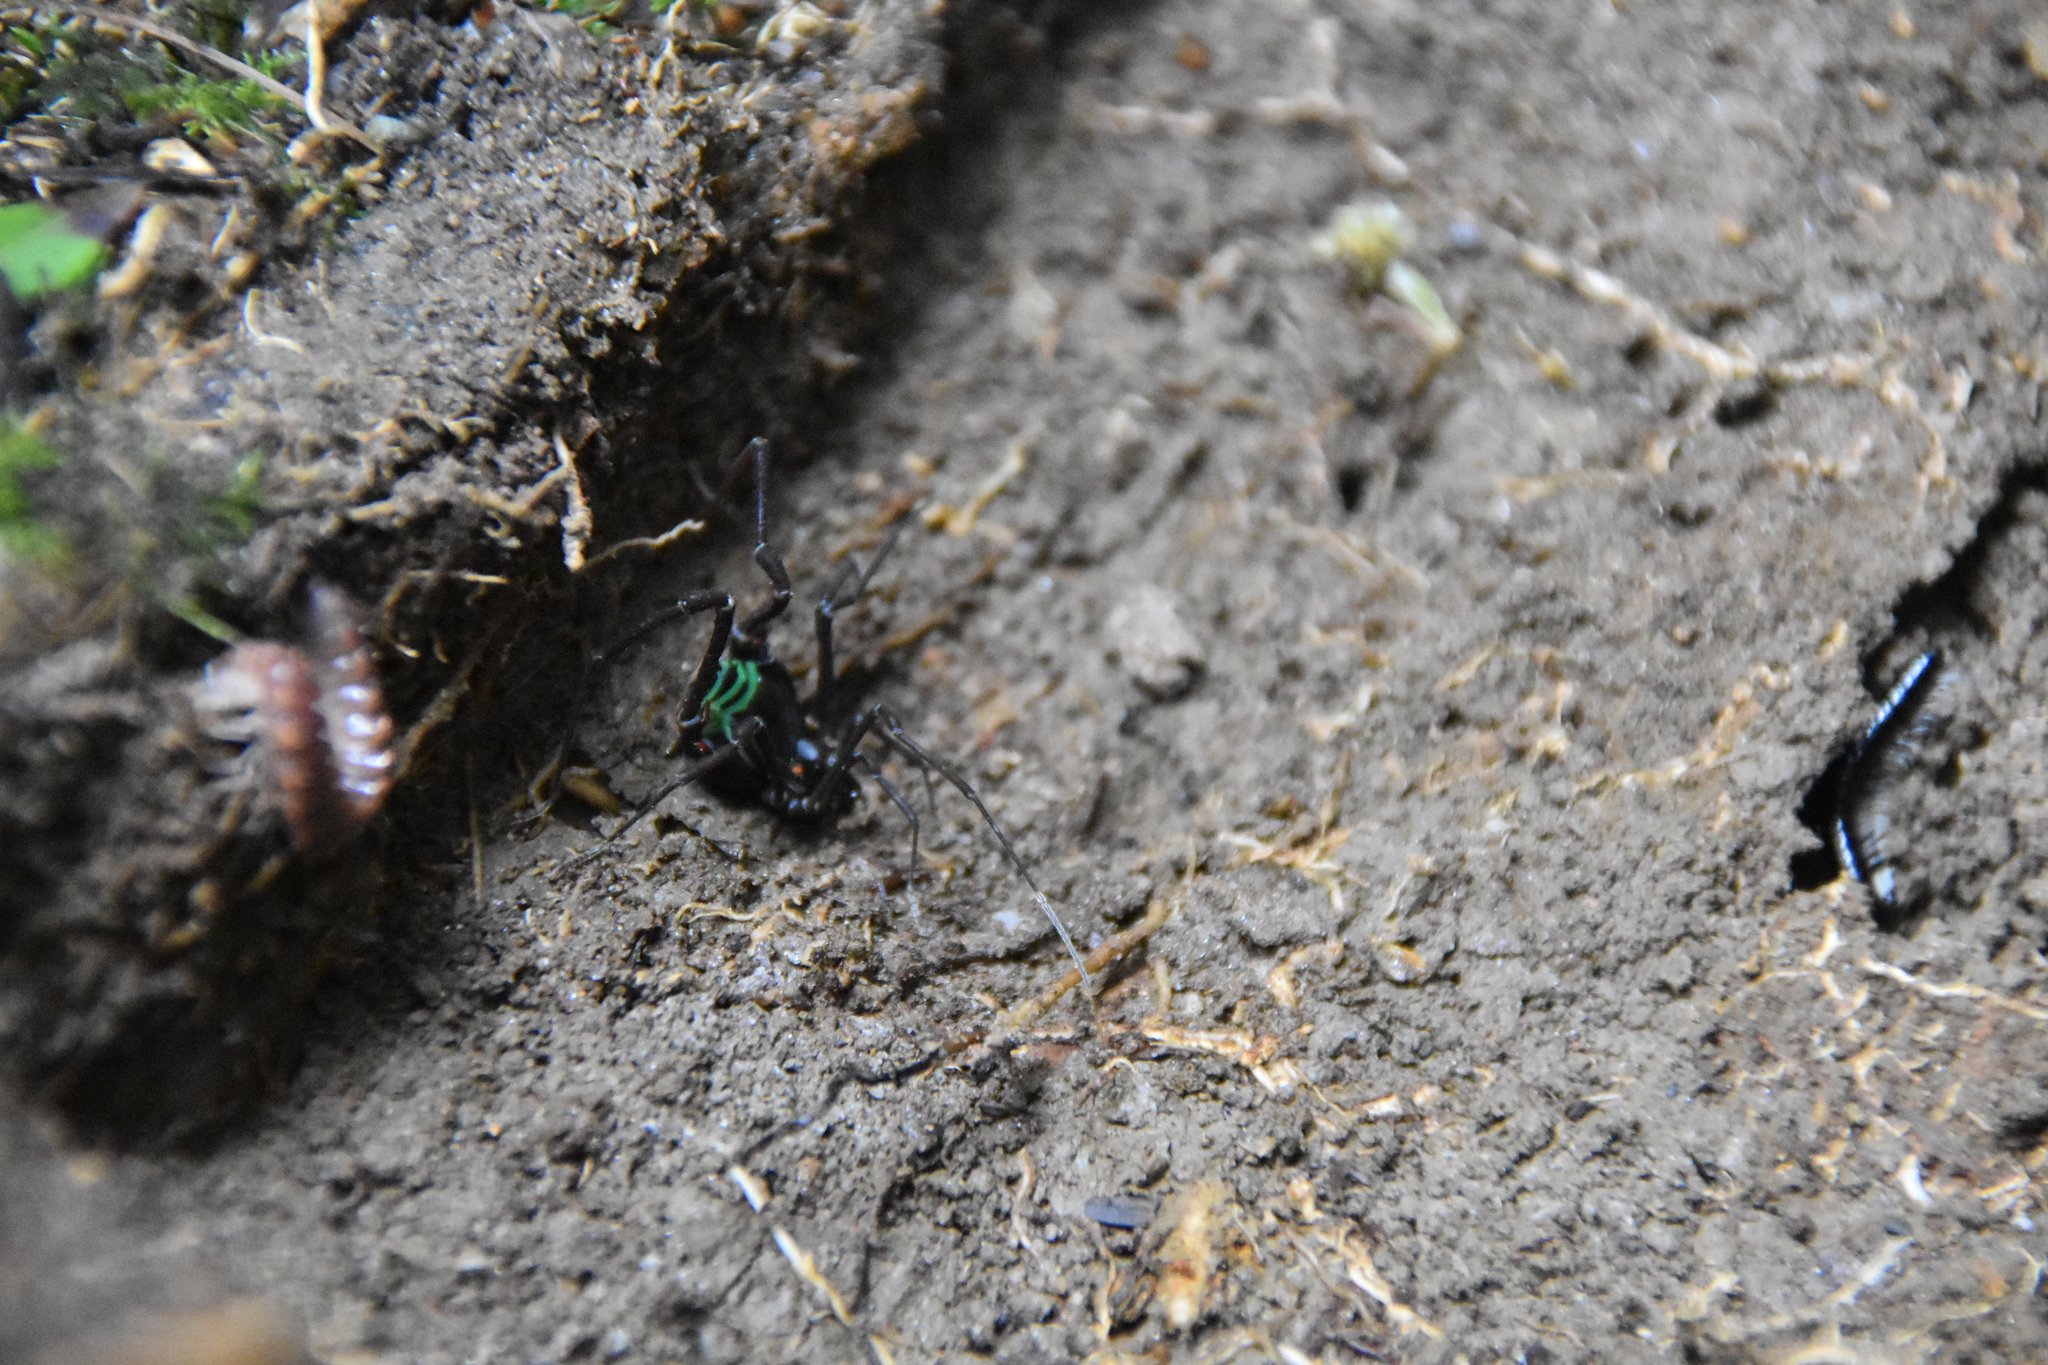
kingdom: Animalia
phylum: Arthropoda
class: Arachnida
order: Opiliones
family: Gonyleptidae
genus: Sadocus
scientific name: Sadocus polyacanthus
